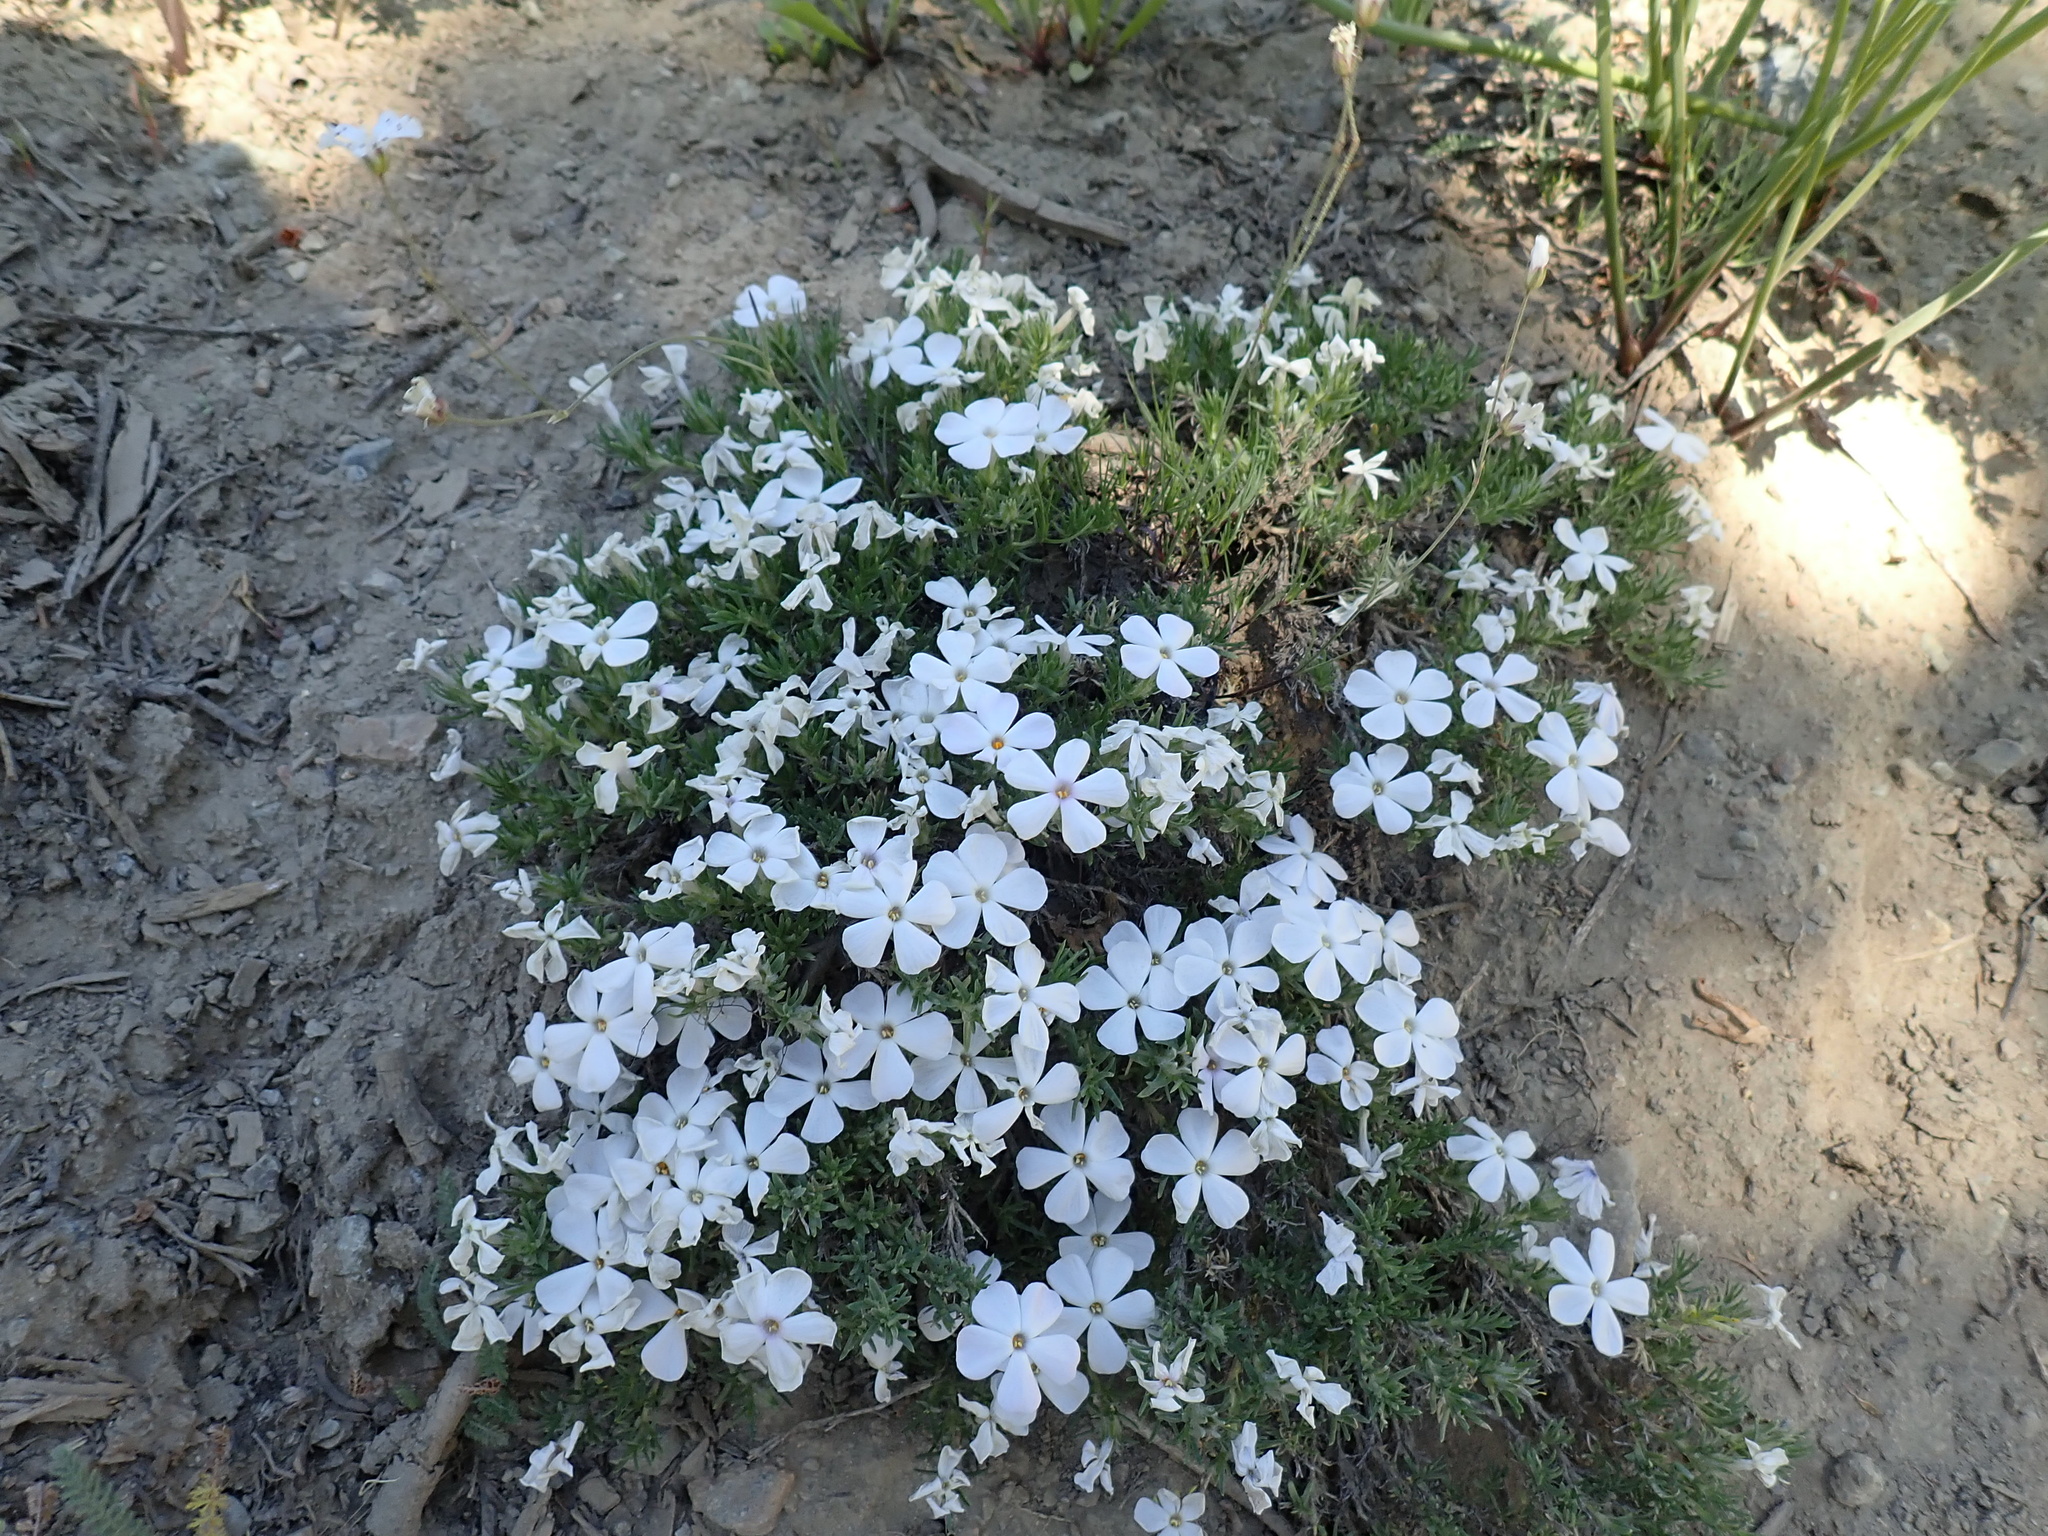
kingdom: Plantae
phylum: Tracheophyta
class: Magnoliopsida
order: Ericales
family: Polemoniaceae
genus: Phlox
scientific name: Phlox diffusa
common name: Mat phlox
